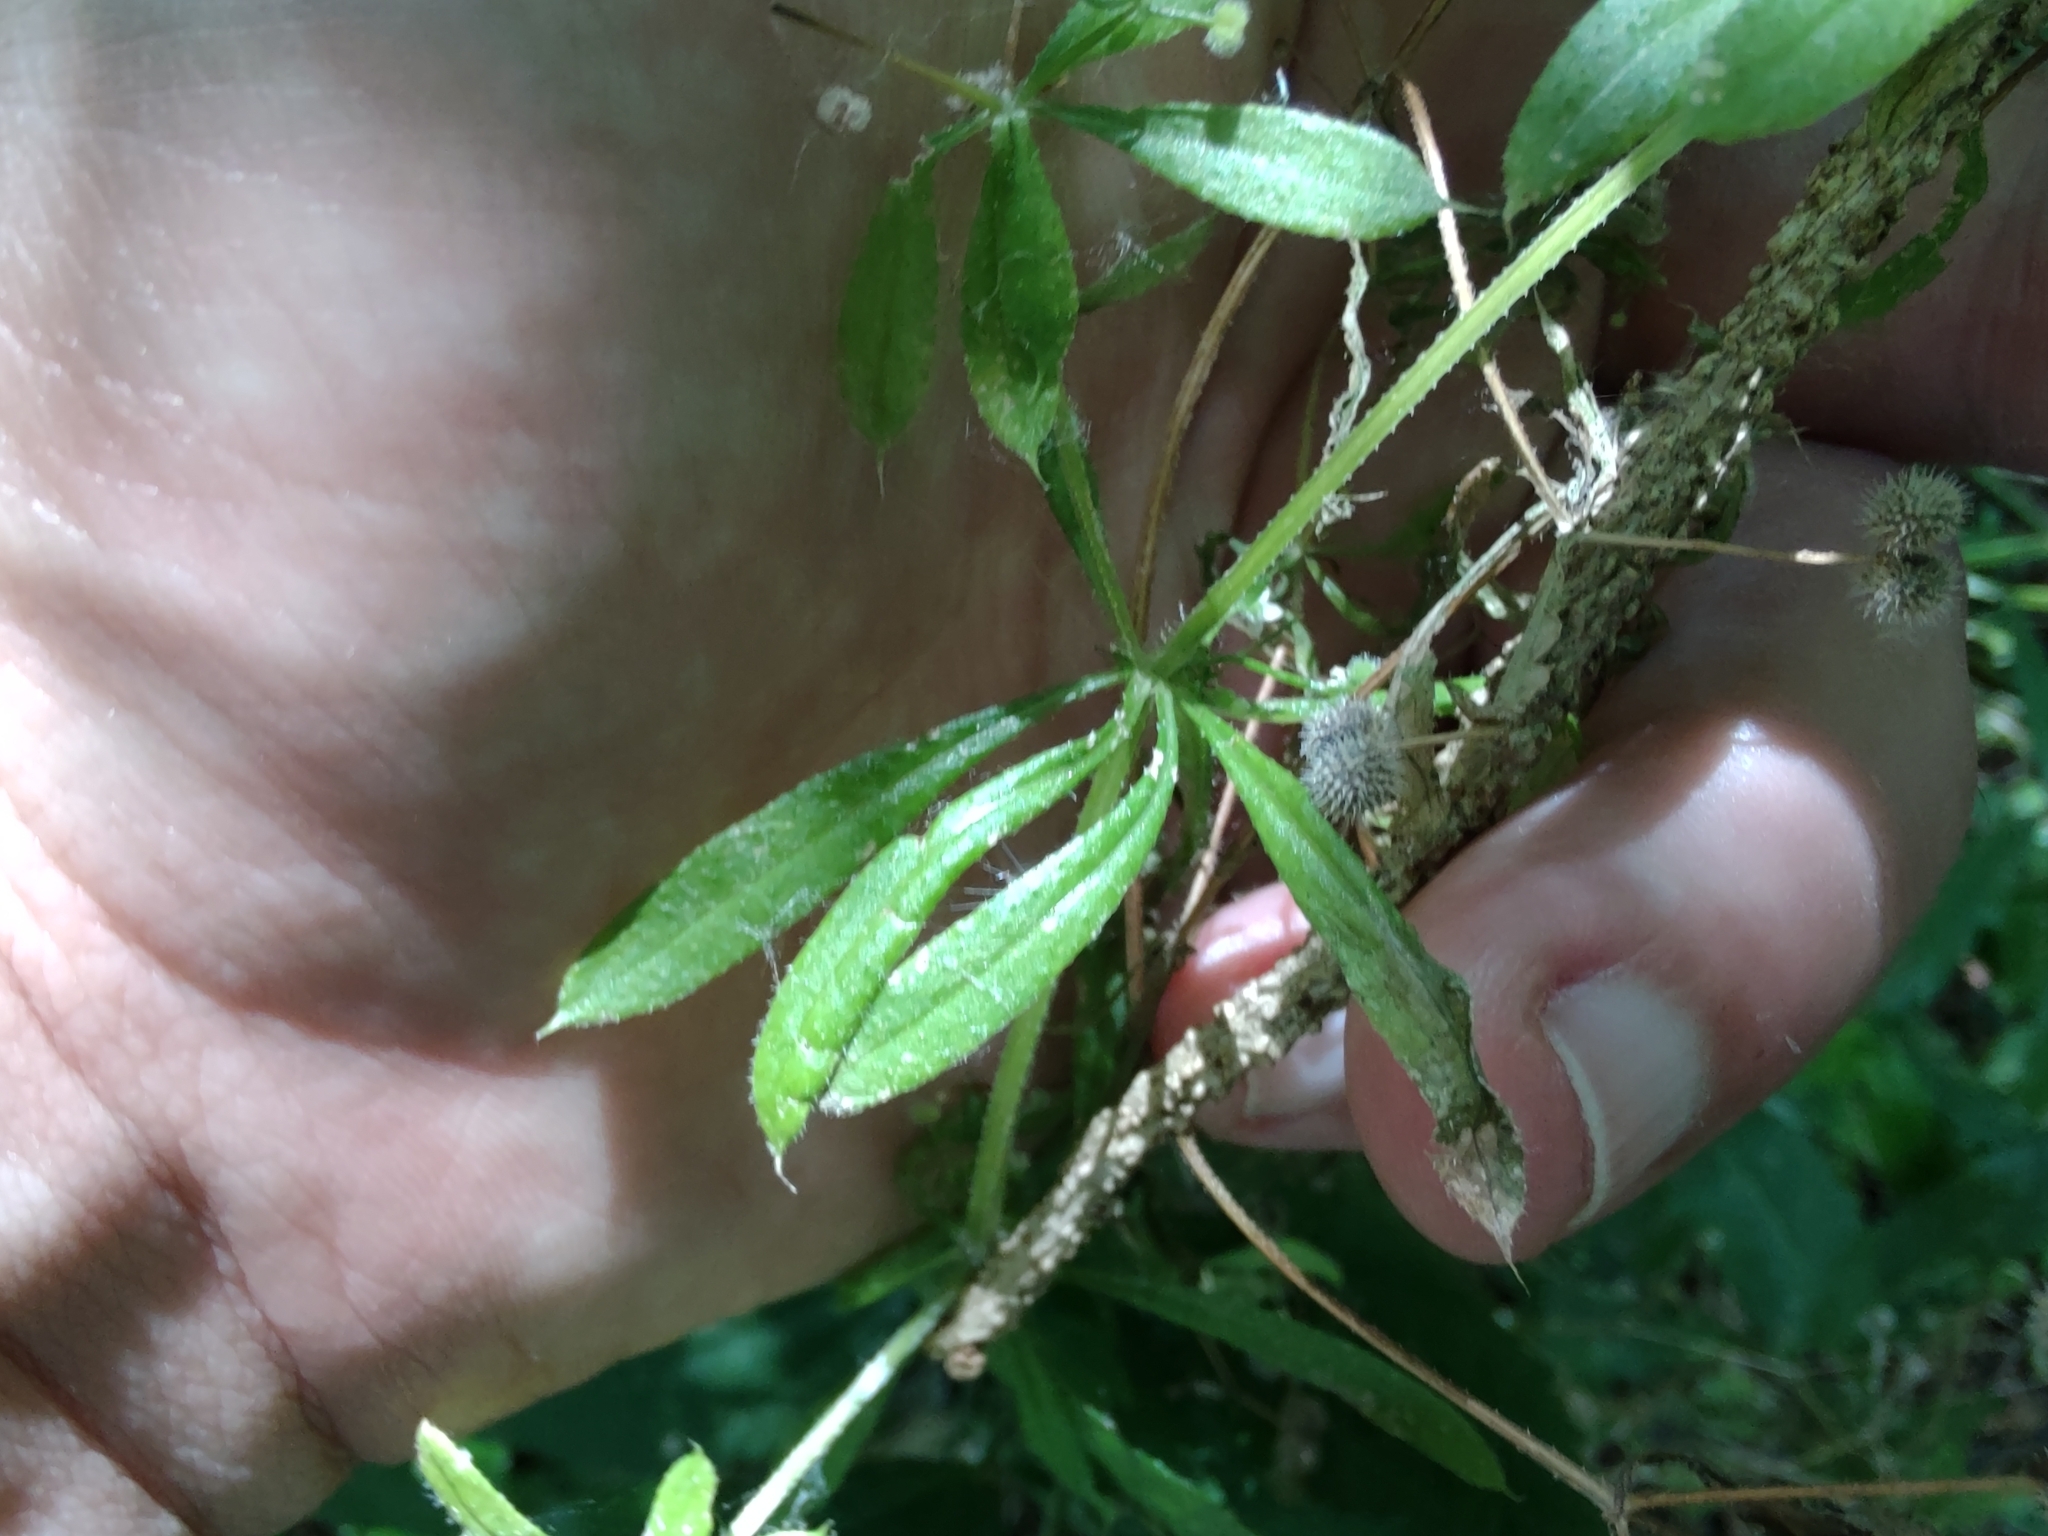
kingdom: Plantae
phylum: Tracheophyta
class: Magnoliopsida
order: Gentianales
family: Rubiaceae
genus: Galium
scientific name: Galium aparine
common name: Cleavers
